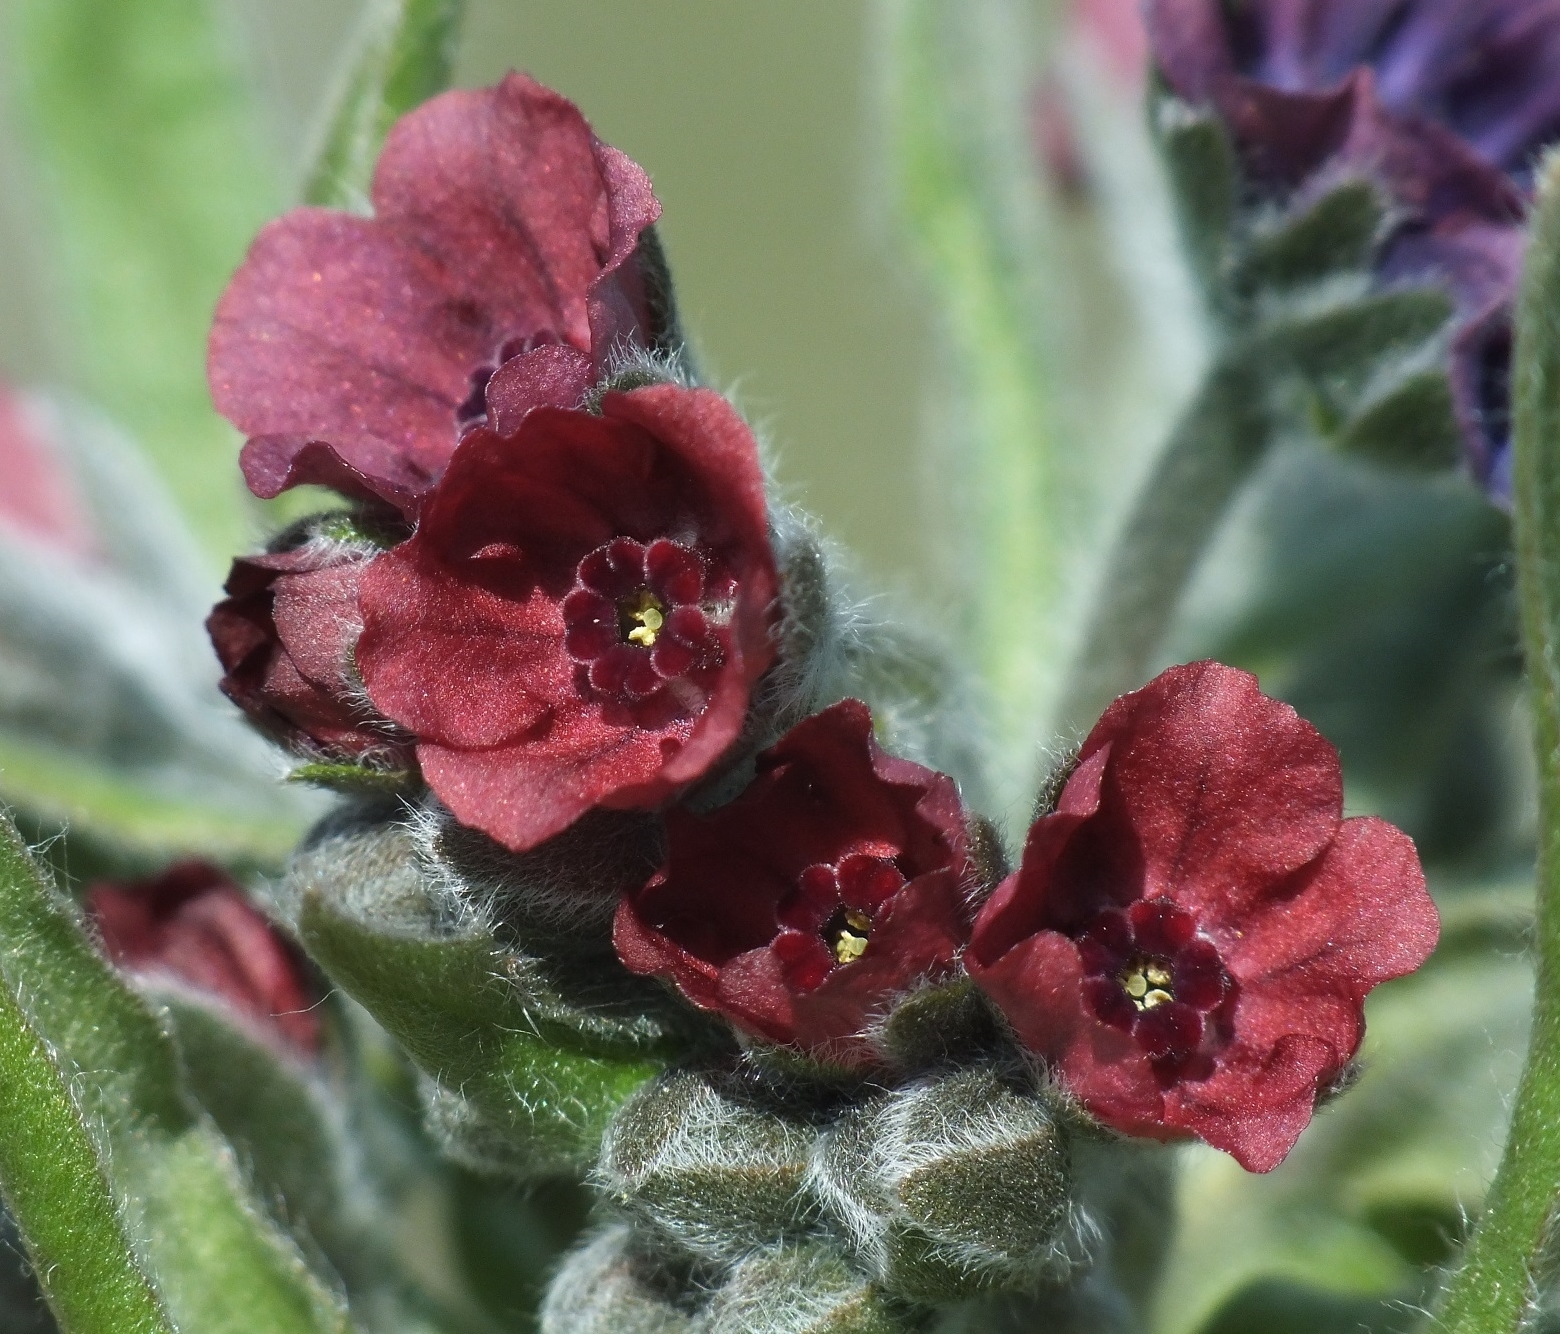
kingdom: Plantae
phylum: Tracheophyta
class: Magnoliopsida
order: Boraginales
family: Boraginaceae
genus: Cynoglossum
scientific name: Cynoglossum officinale
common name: Hound's-tongue
